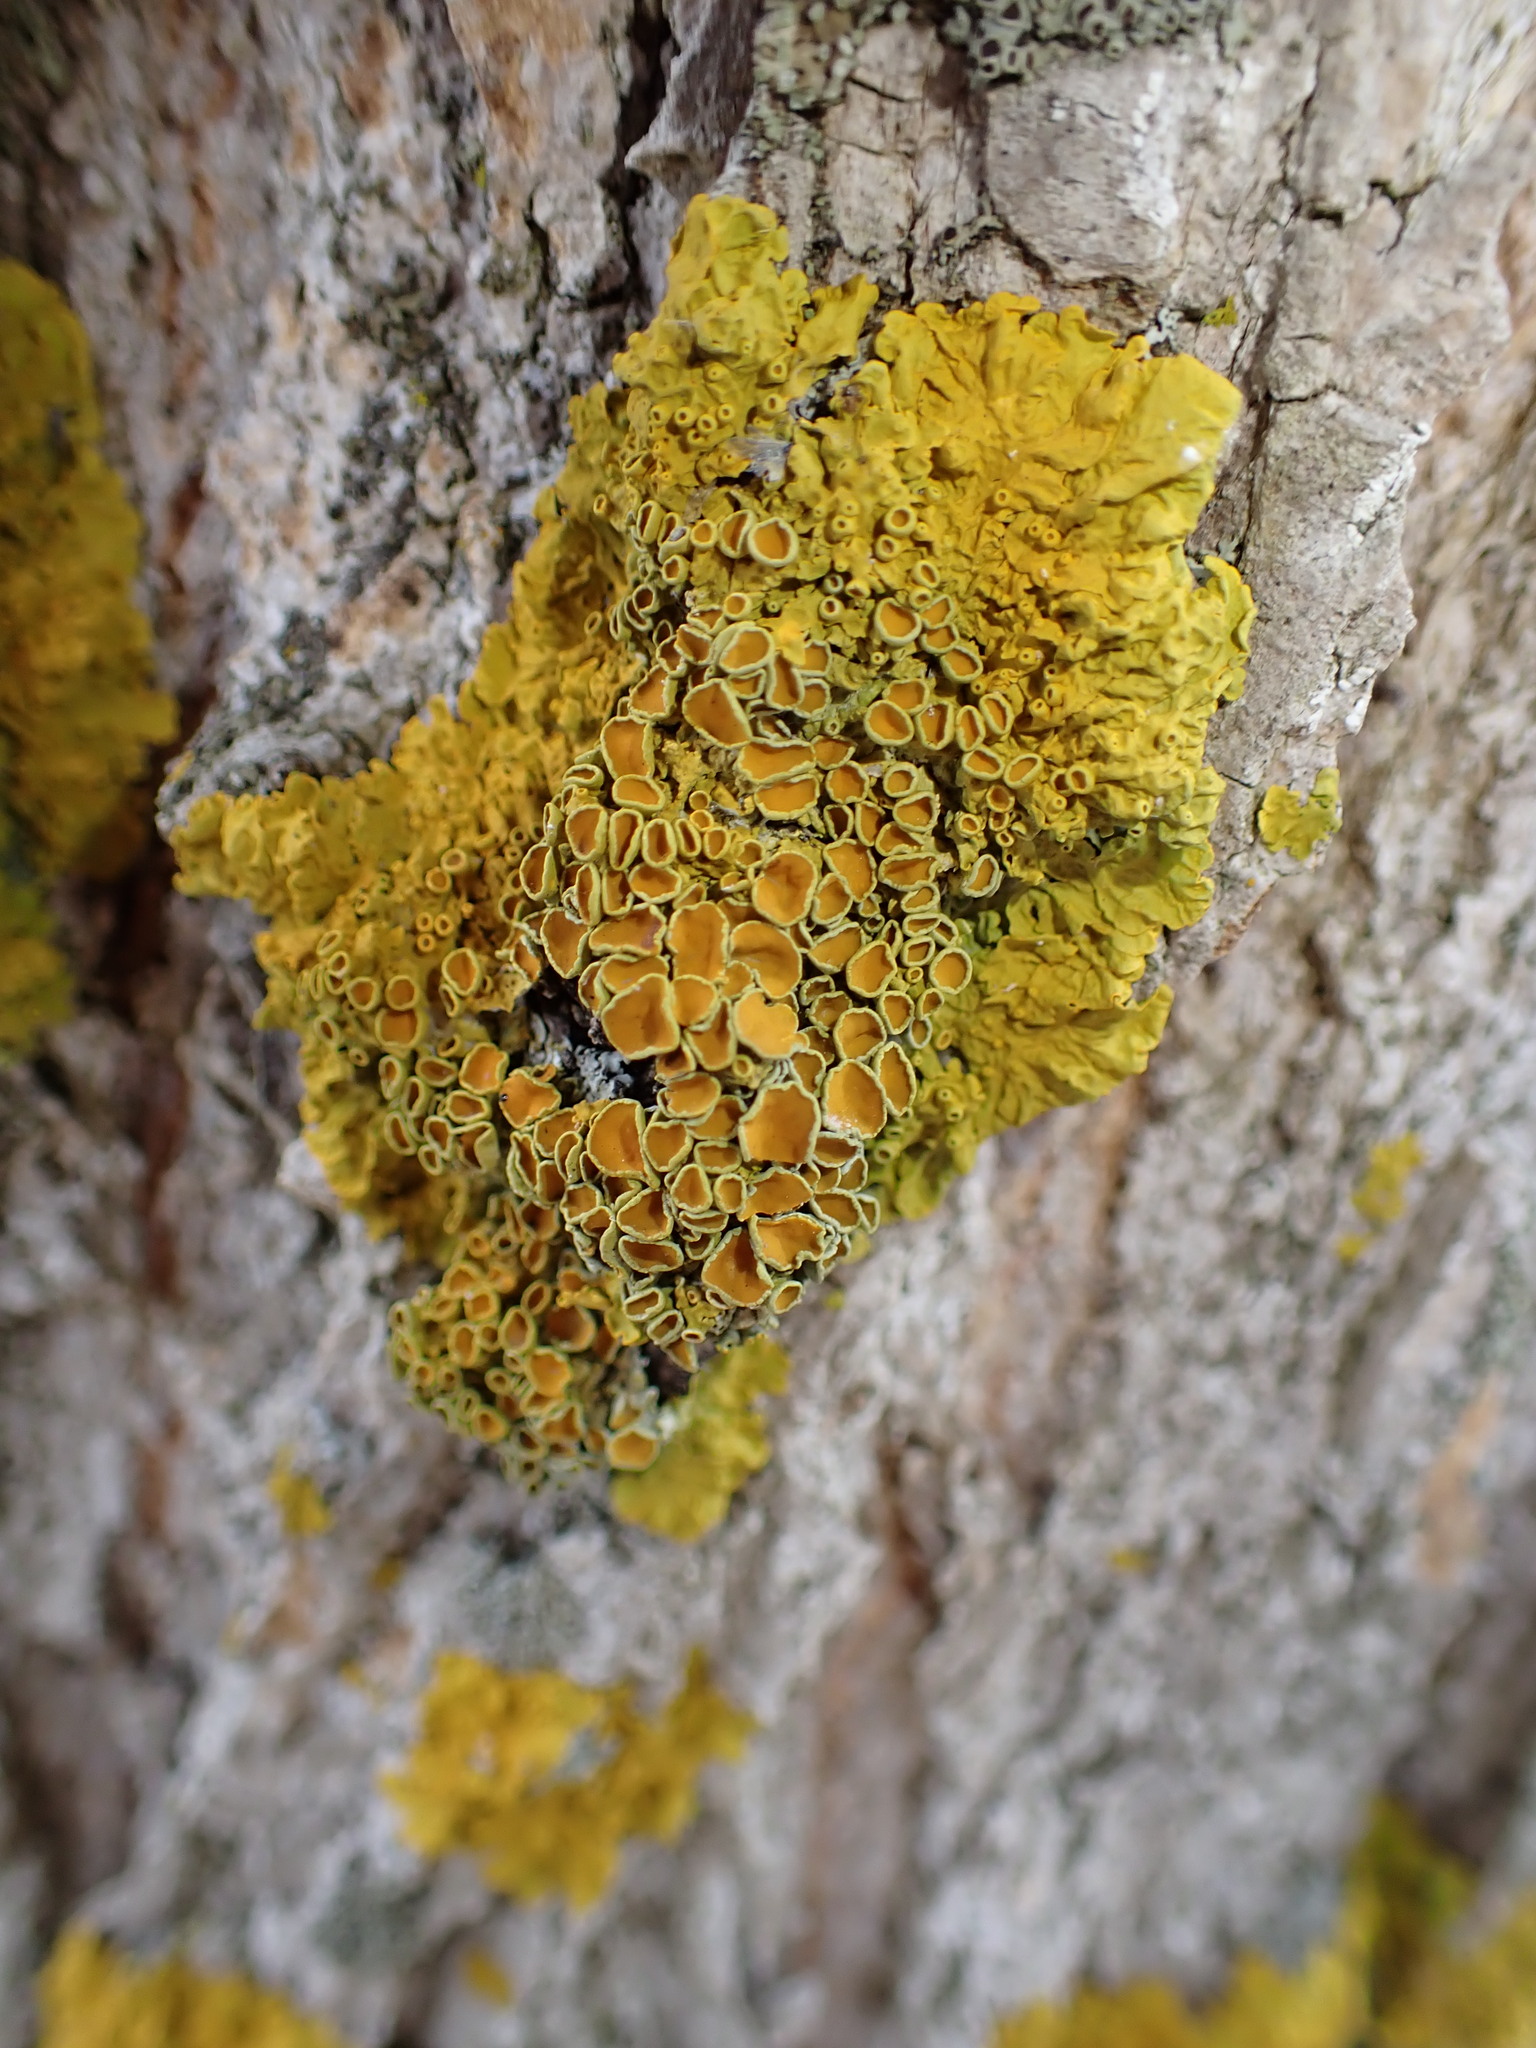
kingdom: Fungi
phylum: Ascomycota
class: Lecanoromycetes
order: Teloschistales
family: Teloschistaceae
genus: Oxneria
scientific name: Oxneria fallax
